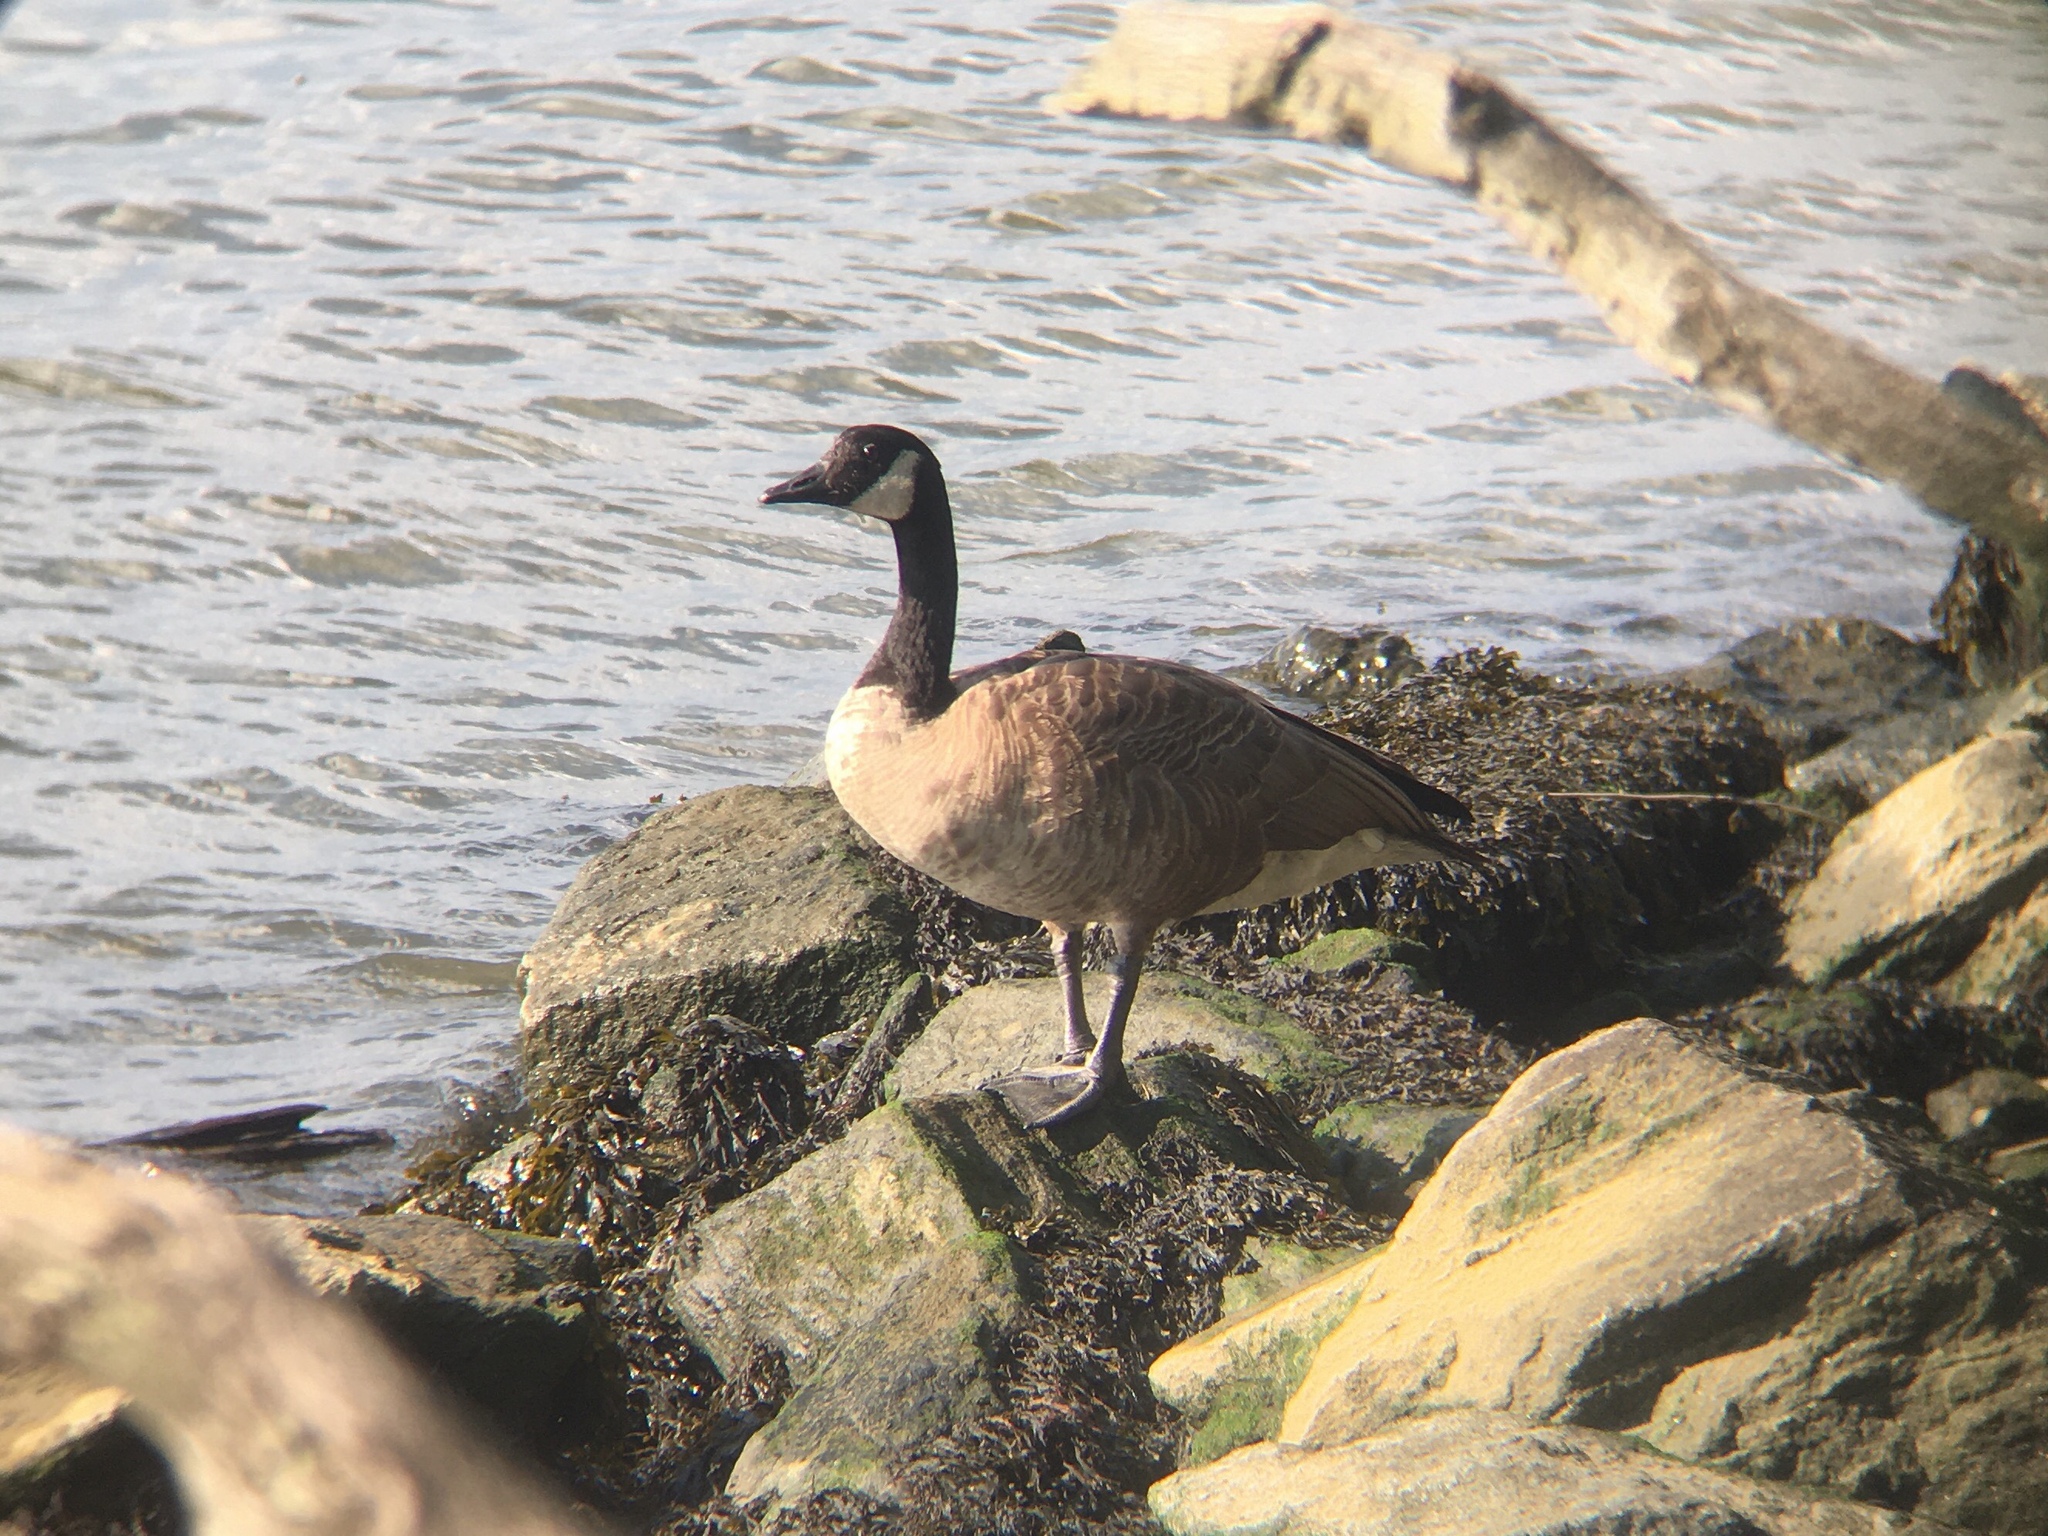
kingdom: Animalia
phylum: Chordata
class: Aves
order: Anseriformes
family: Anatidae
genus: Branta
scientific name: Branta canadensis
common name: Canada goose
